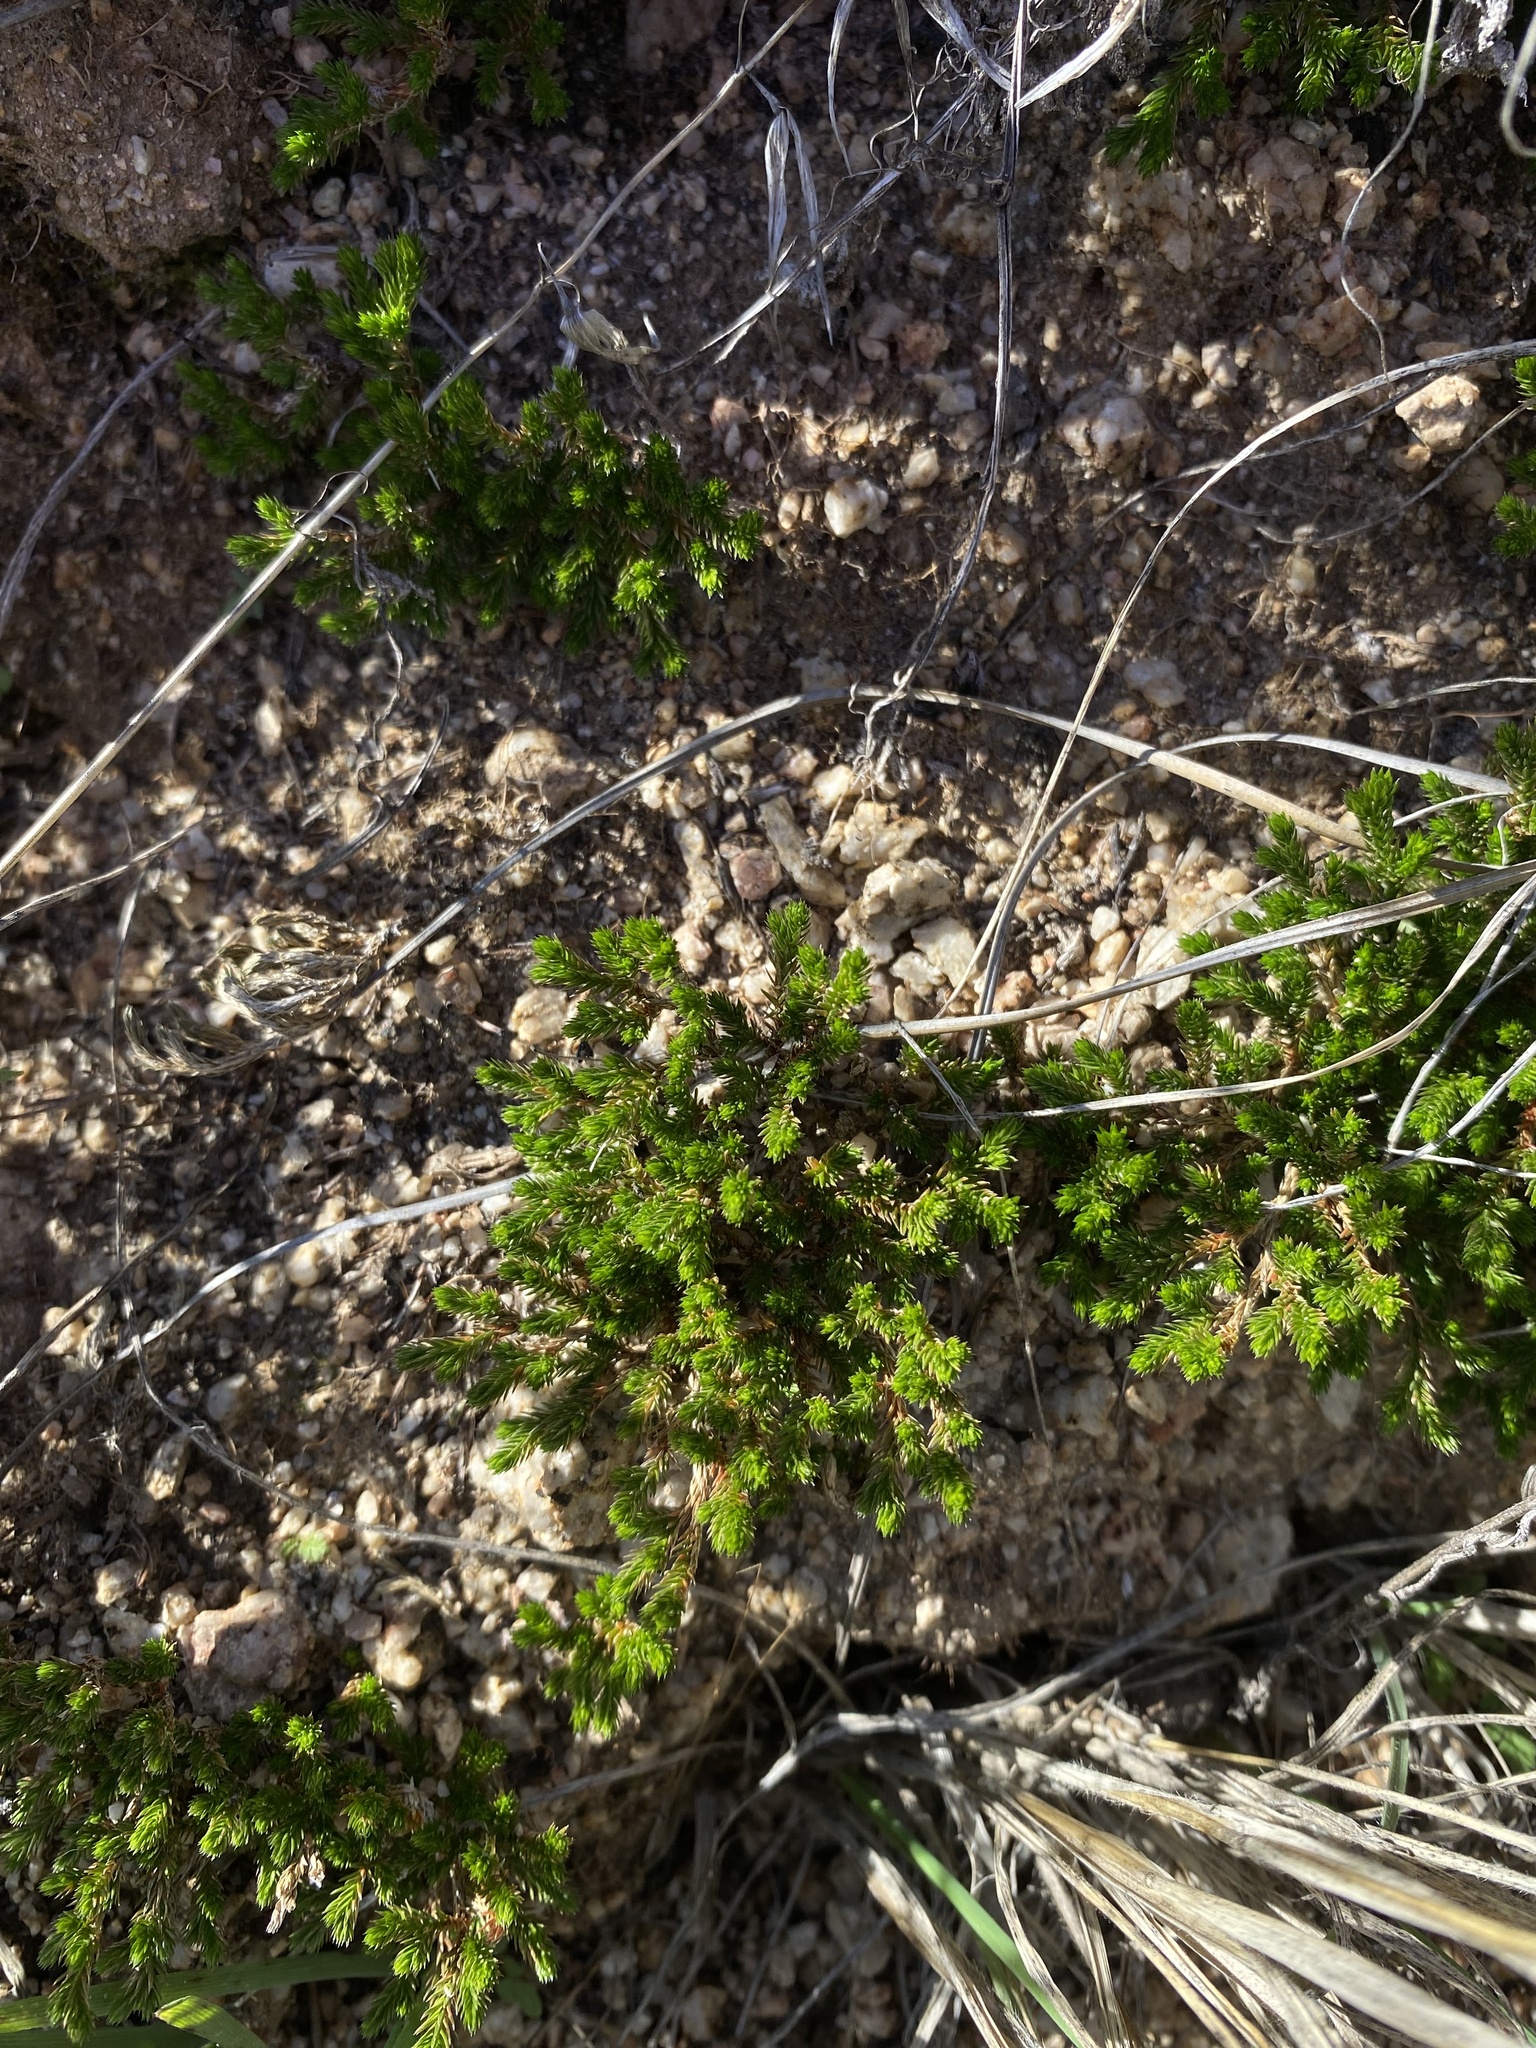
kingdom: Plantae
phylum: Tracheophyta
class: Lycopodiopsida
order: Selaginellales
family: Selaginellaceae
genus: Selaginella
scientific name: Selaginella bigelovii
